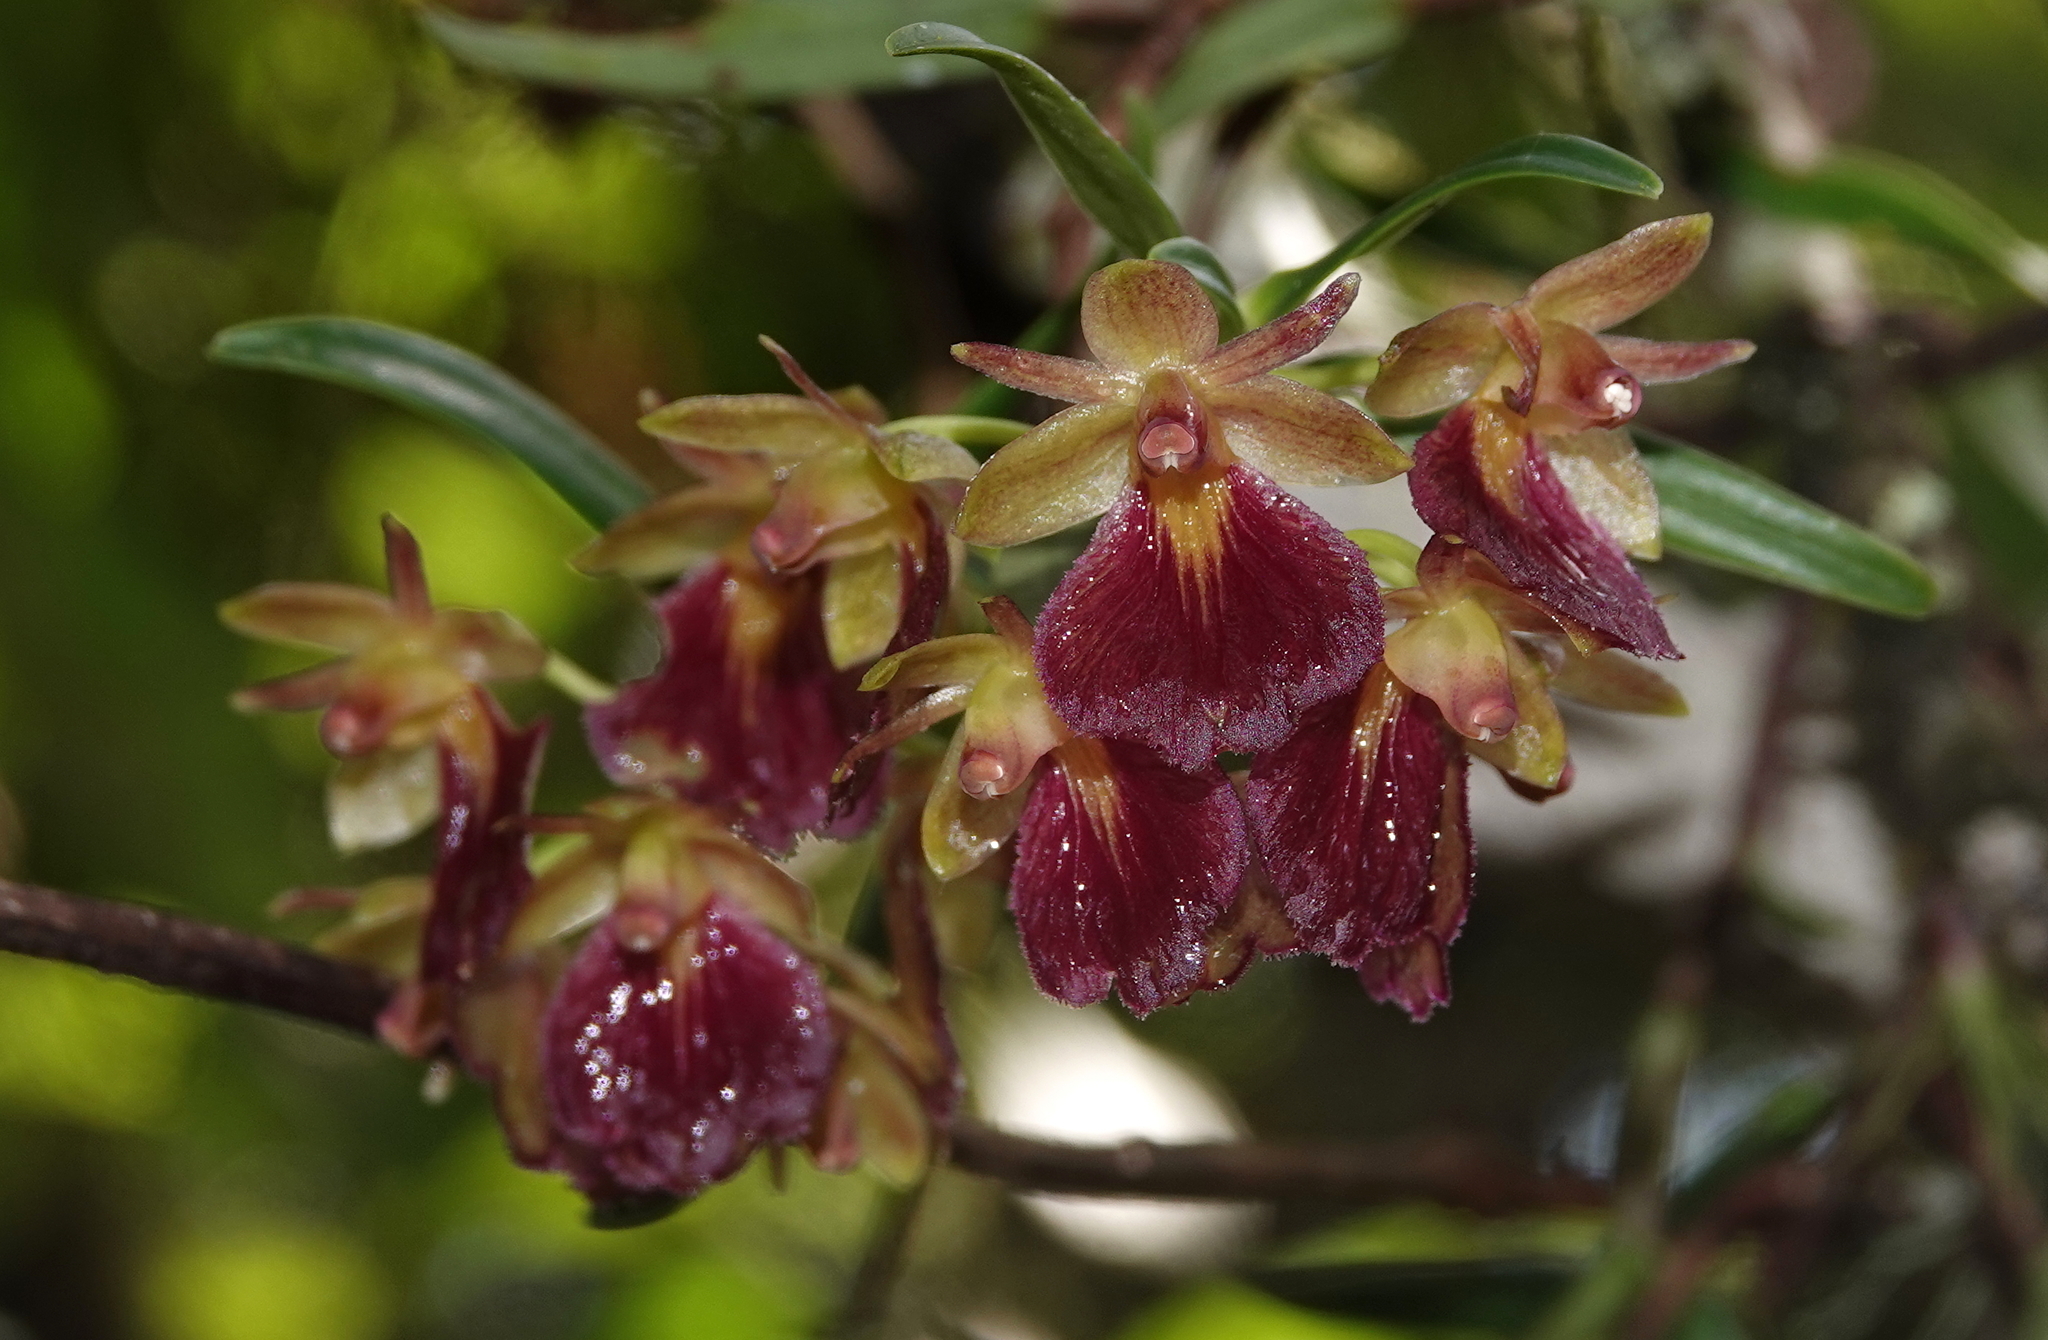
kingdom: Plantae
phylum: Tracheophyta
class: Liliopsida
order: Asparagales
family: Orchidaceae
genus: Epidendrum
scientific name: Epidendrum cottoniiflorum
